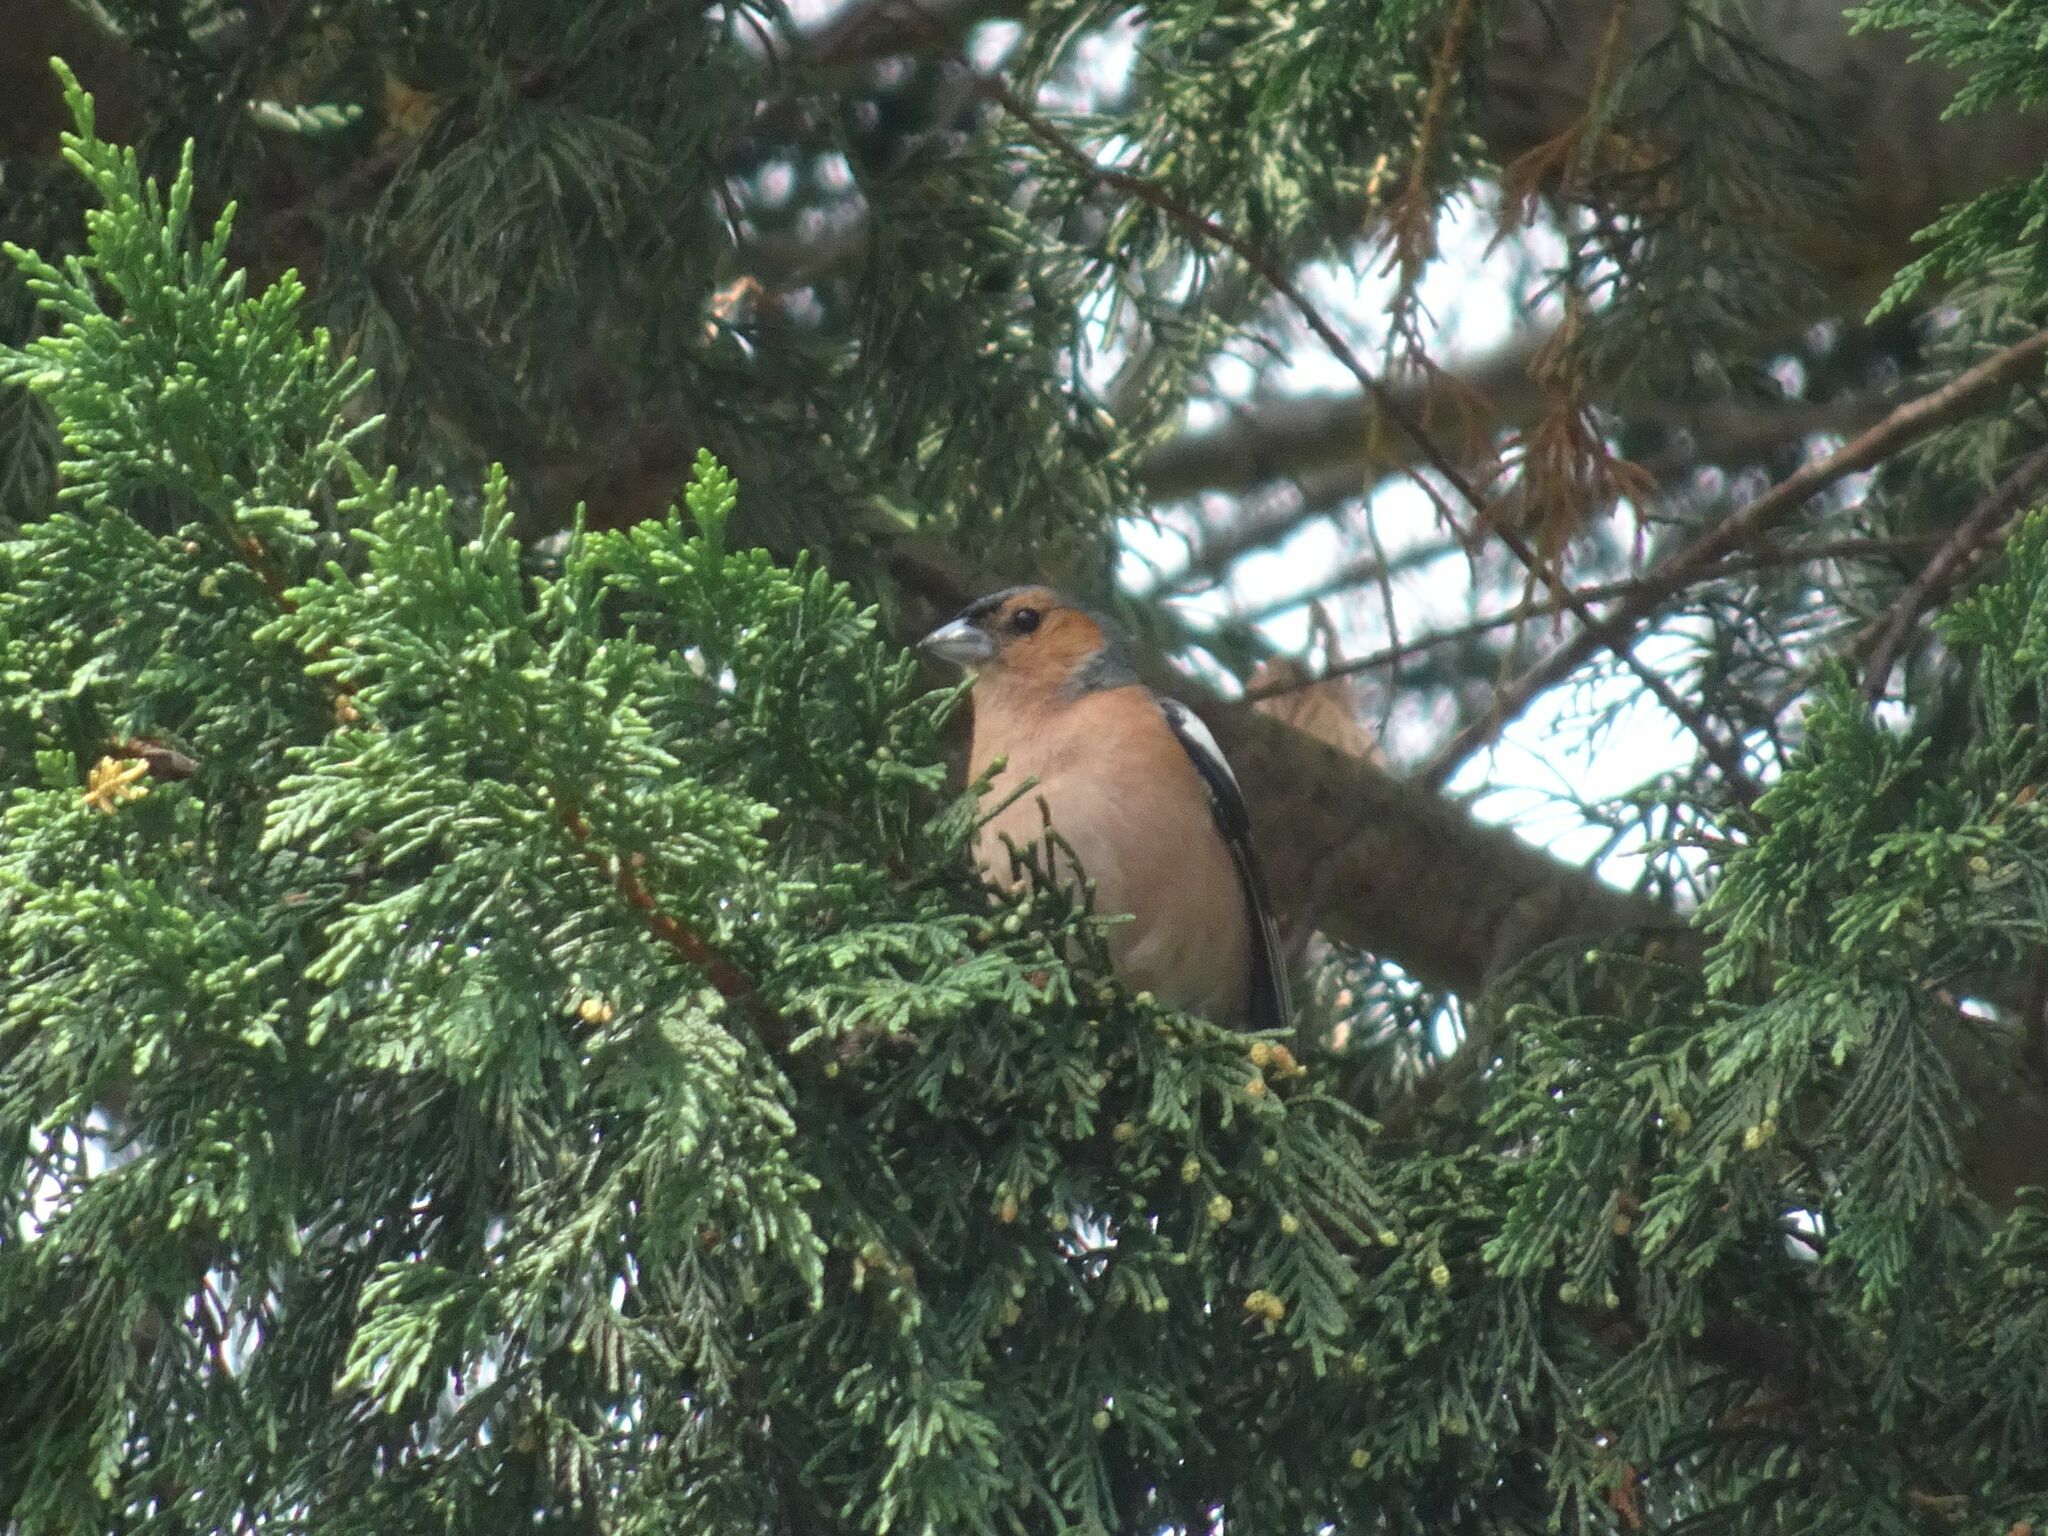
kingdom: Animalia
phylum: Chordata
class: Aves
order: Passeriformes
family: Fringillidae
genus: Fringilla
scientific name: Fringilla coelebs
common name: Common chaffinch
